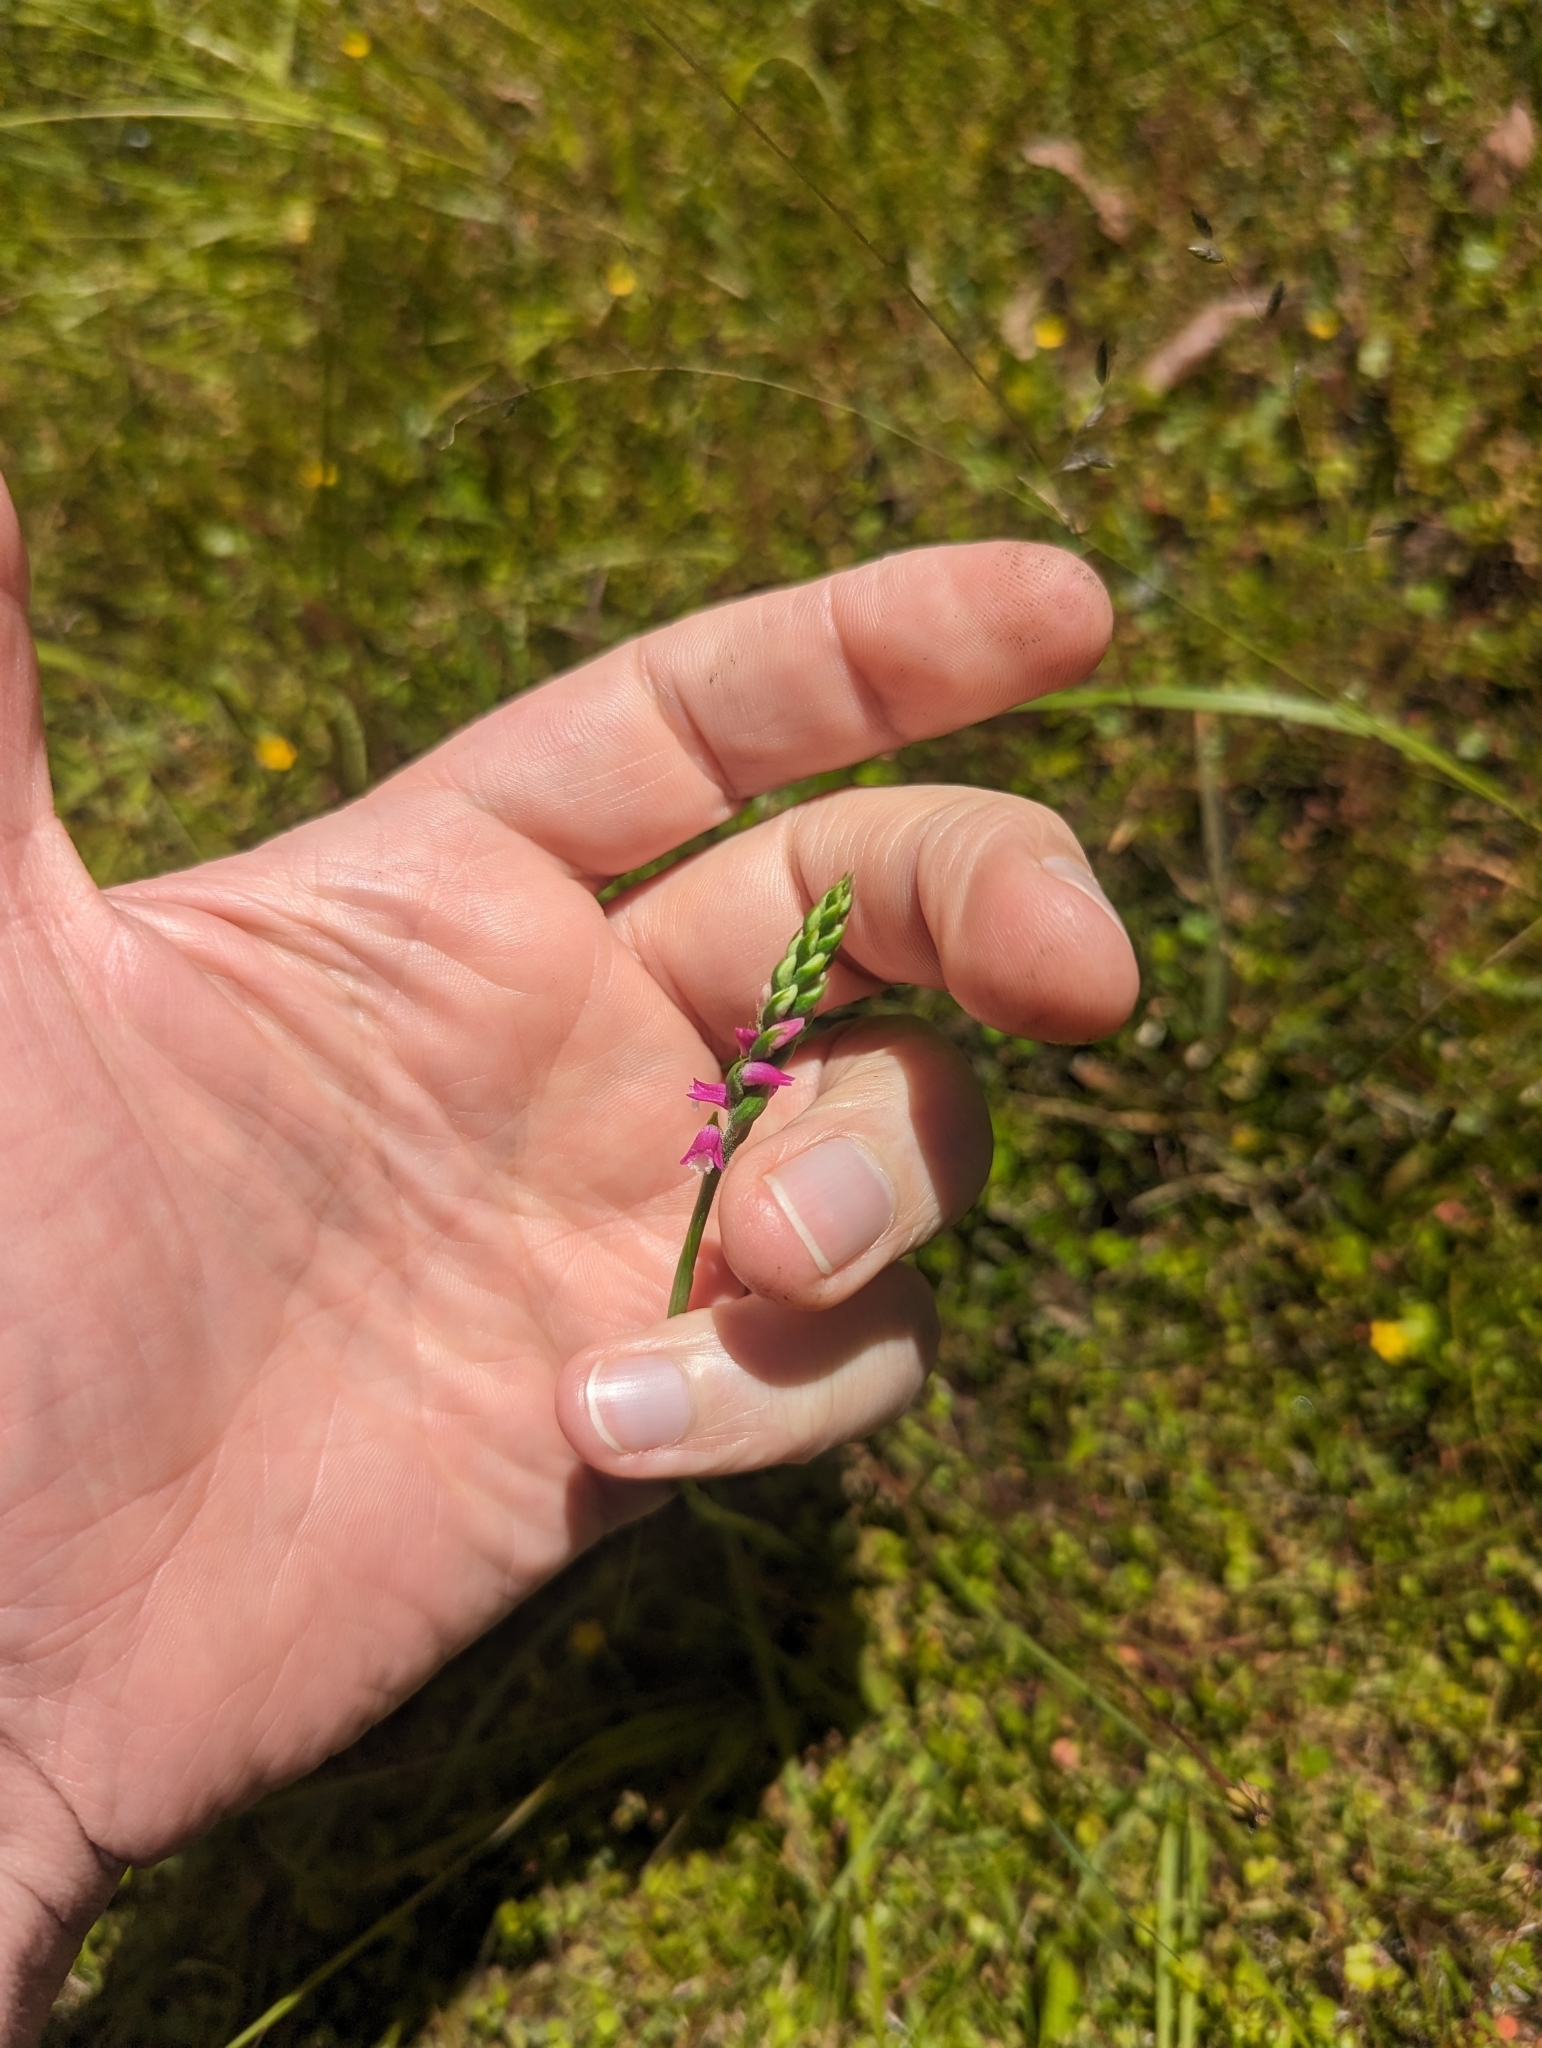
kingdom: Plantae
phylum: Tracheophyta
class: Liliopsida
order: Asparagales
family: Orchidaceae
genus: Spiranthes
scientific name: Spiranthes australis
